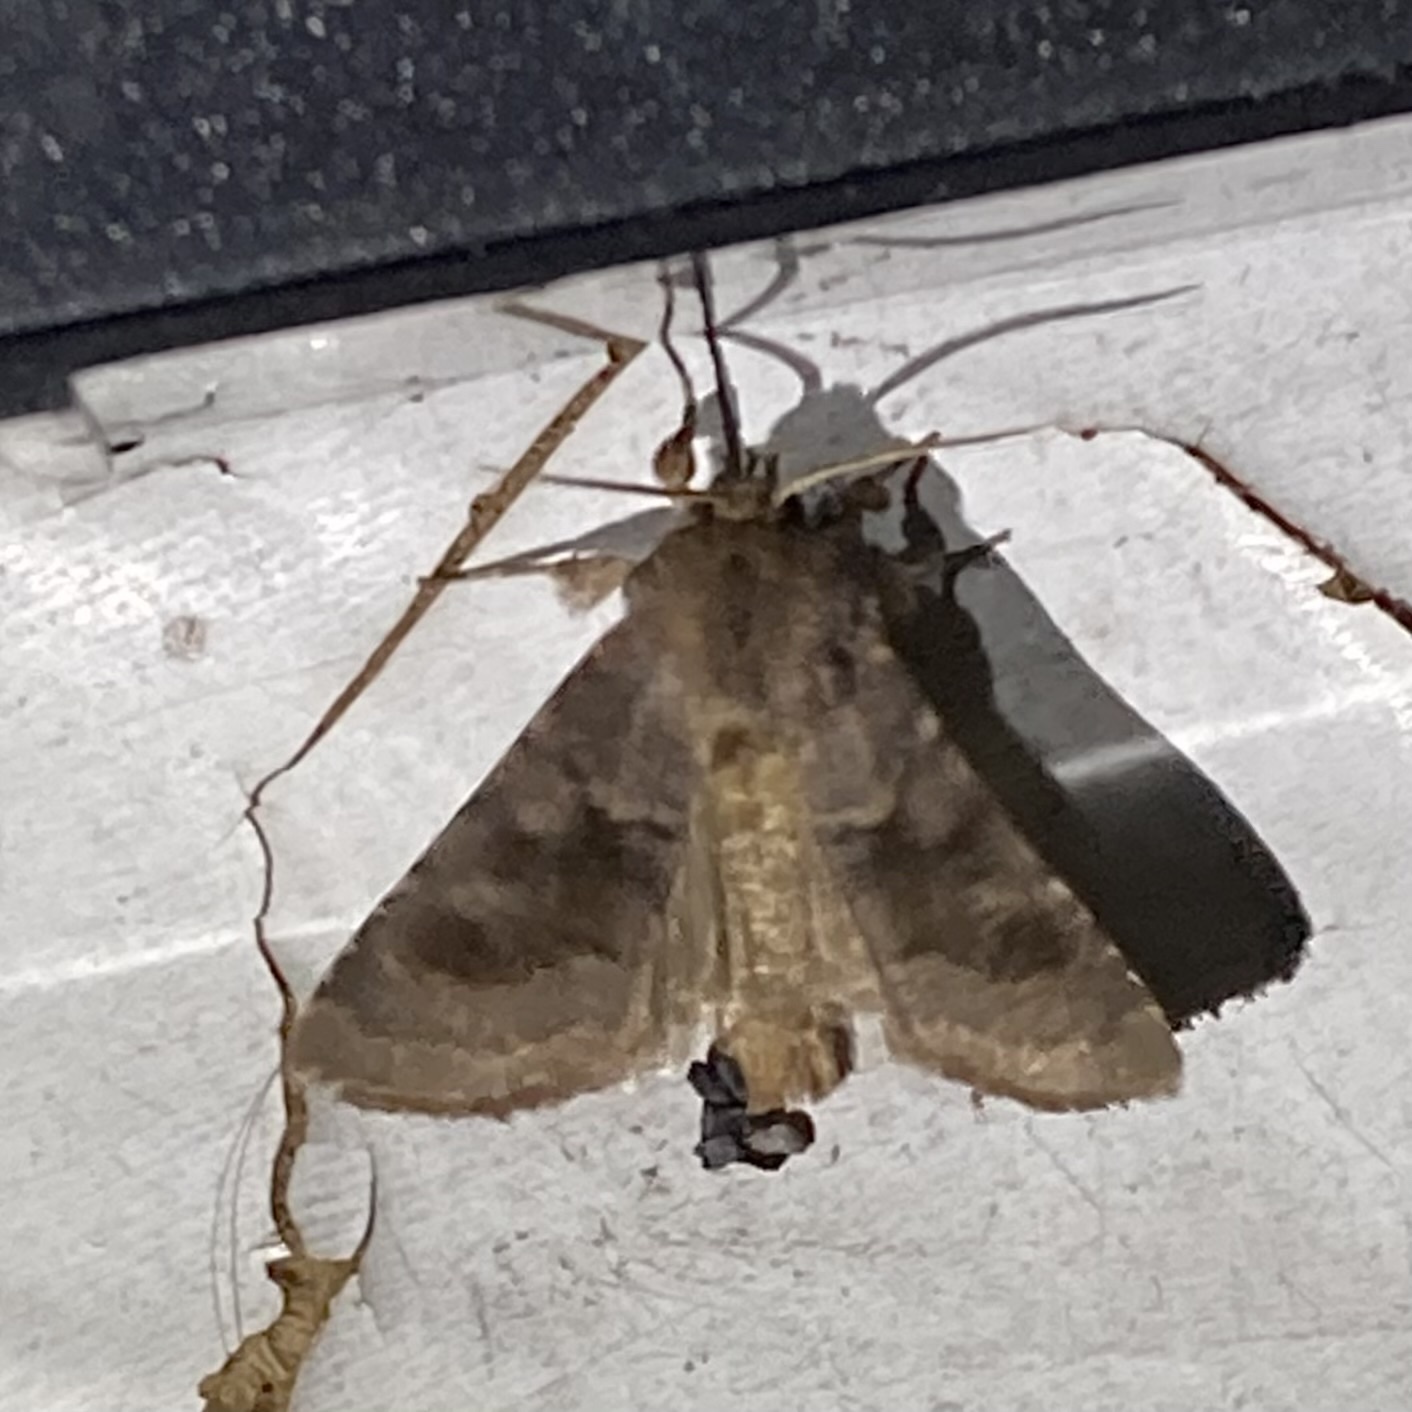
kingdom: Animalia
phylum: Arthropoda
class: Insecta
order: Lepidoptera
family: Noctuidae
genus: Nephelodes
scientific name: Nephelodes minians
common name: Bronzed cutworm
